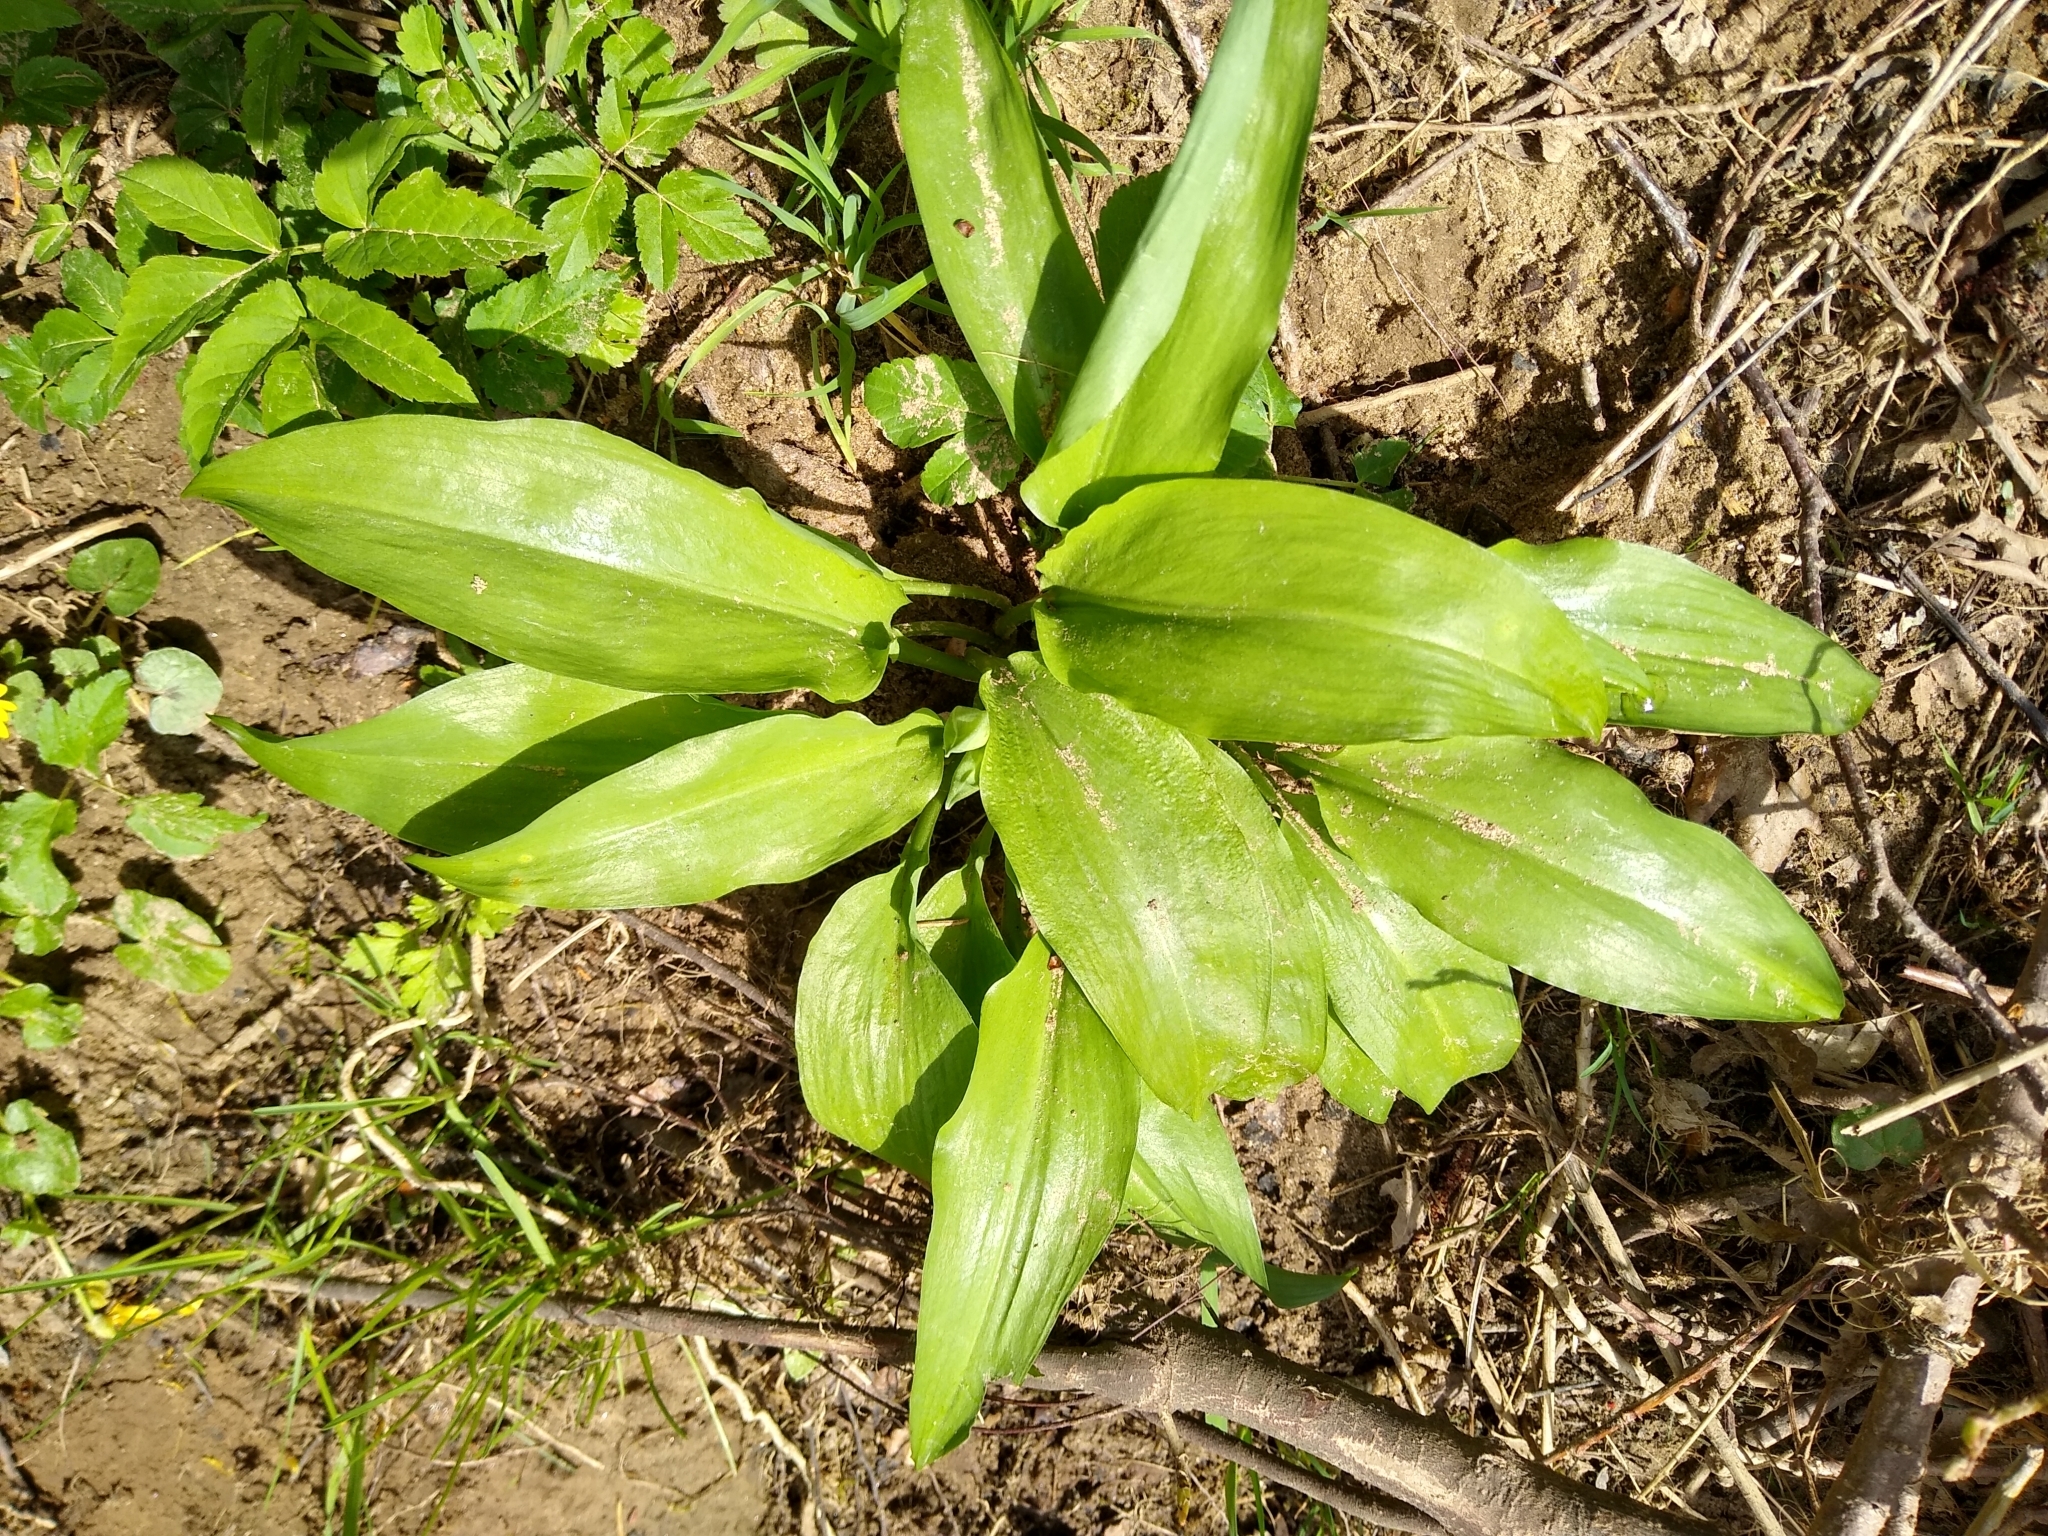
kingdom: Plantae
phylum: Tracheophyta
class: Liliopsida
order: Asparagales
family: Amaryllidaceae
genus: Allium
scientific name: Allium ursinum
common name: Ramsons
